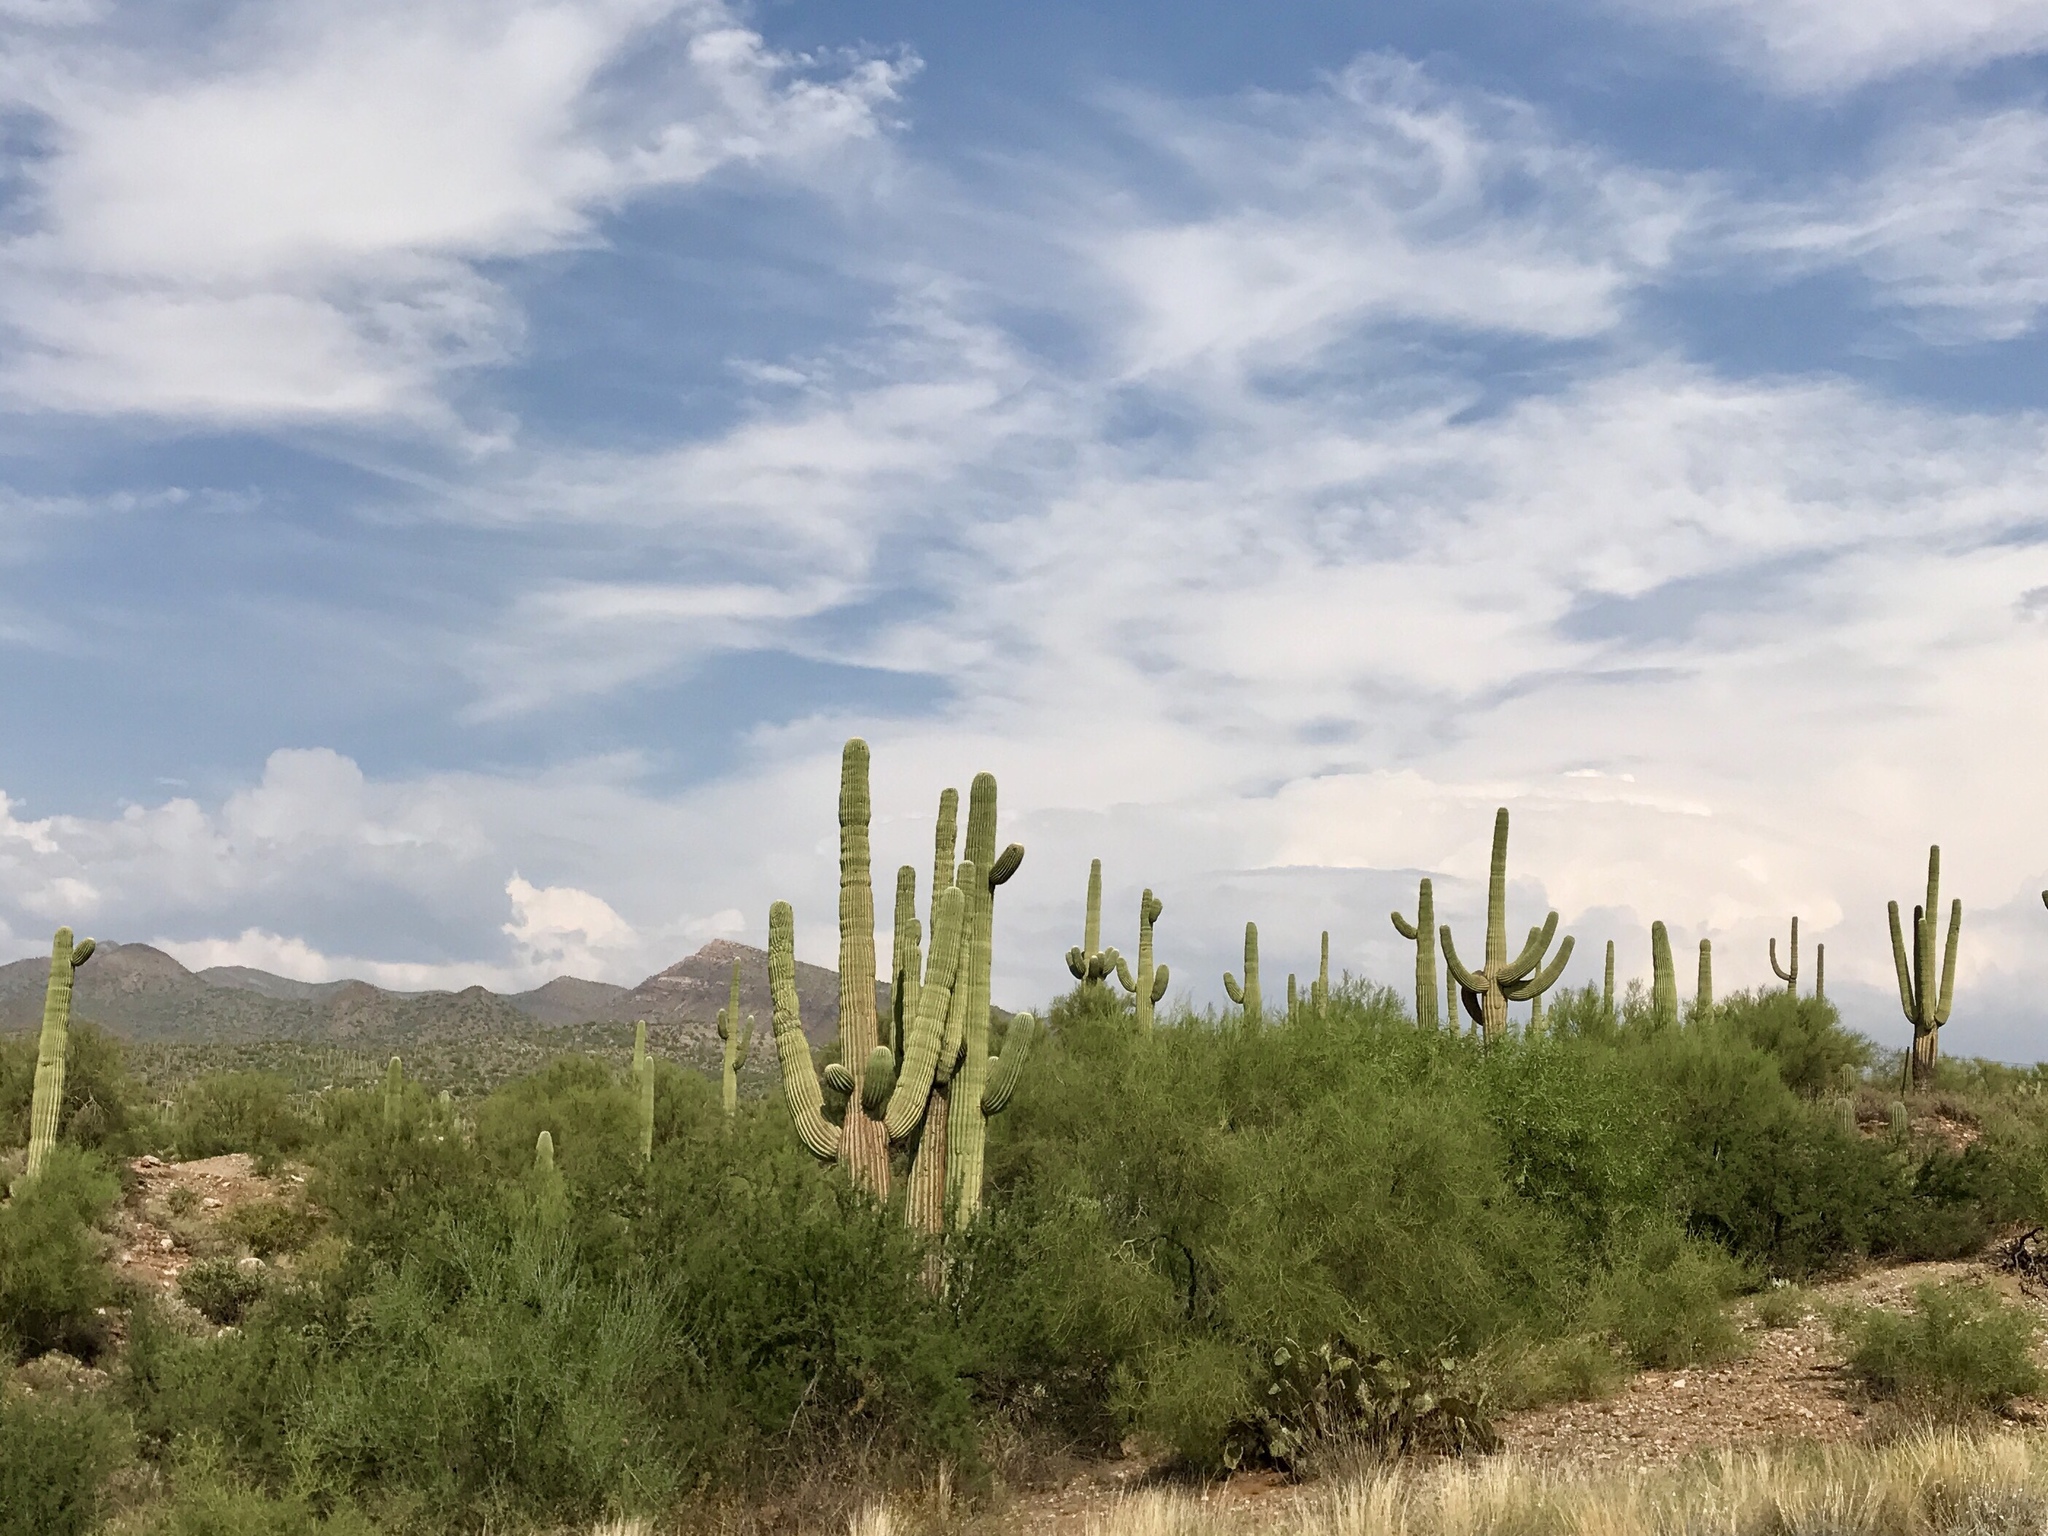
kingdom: Plantae
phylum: Tracheophyta
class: Magnoliopsida
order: Caryophyllales
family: Cactaceae
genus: Carnegiea
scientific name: Carnegiea gigantea
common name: Saguaro
